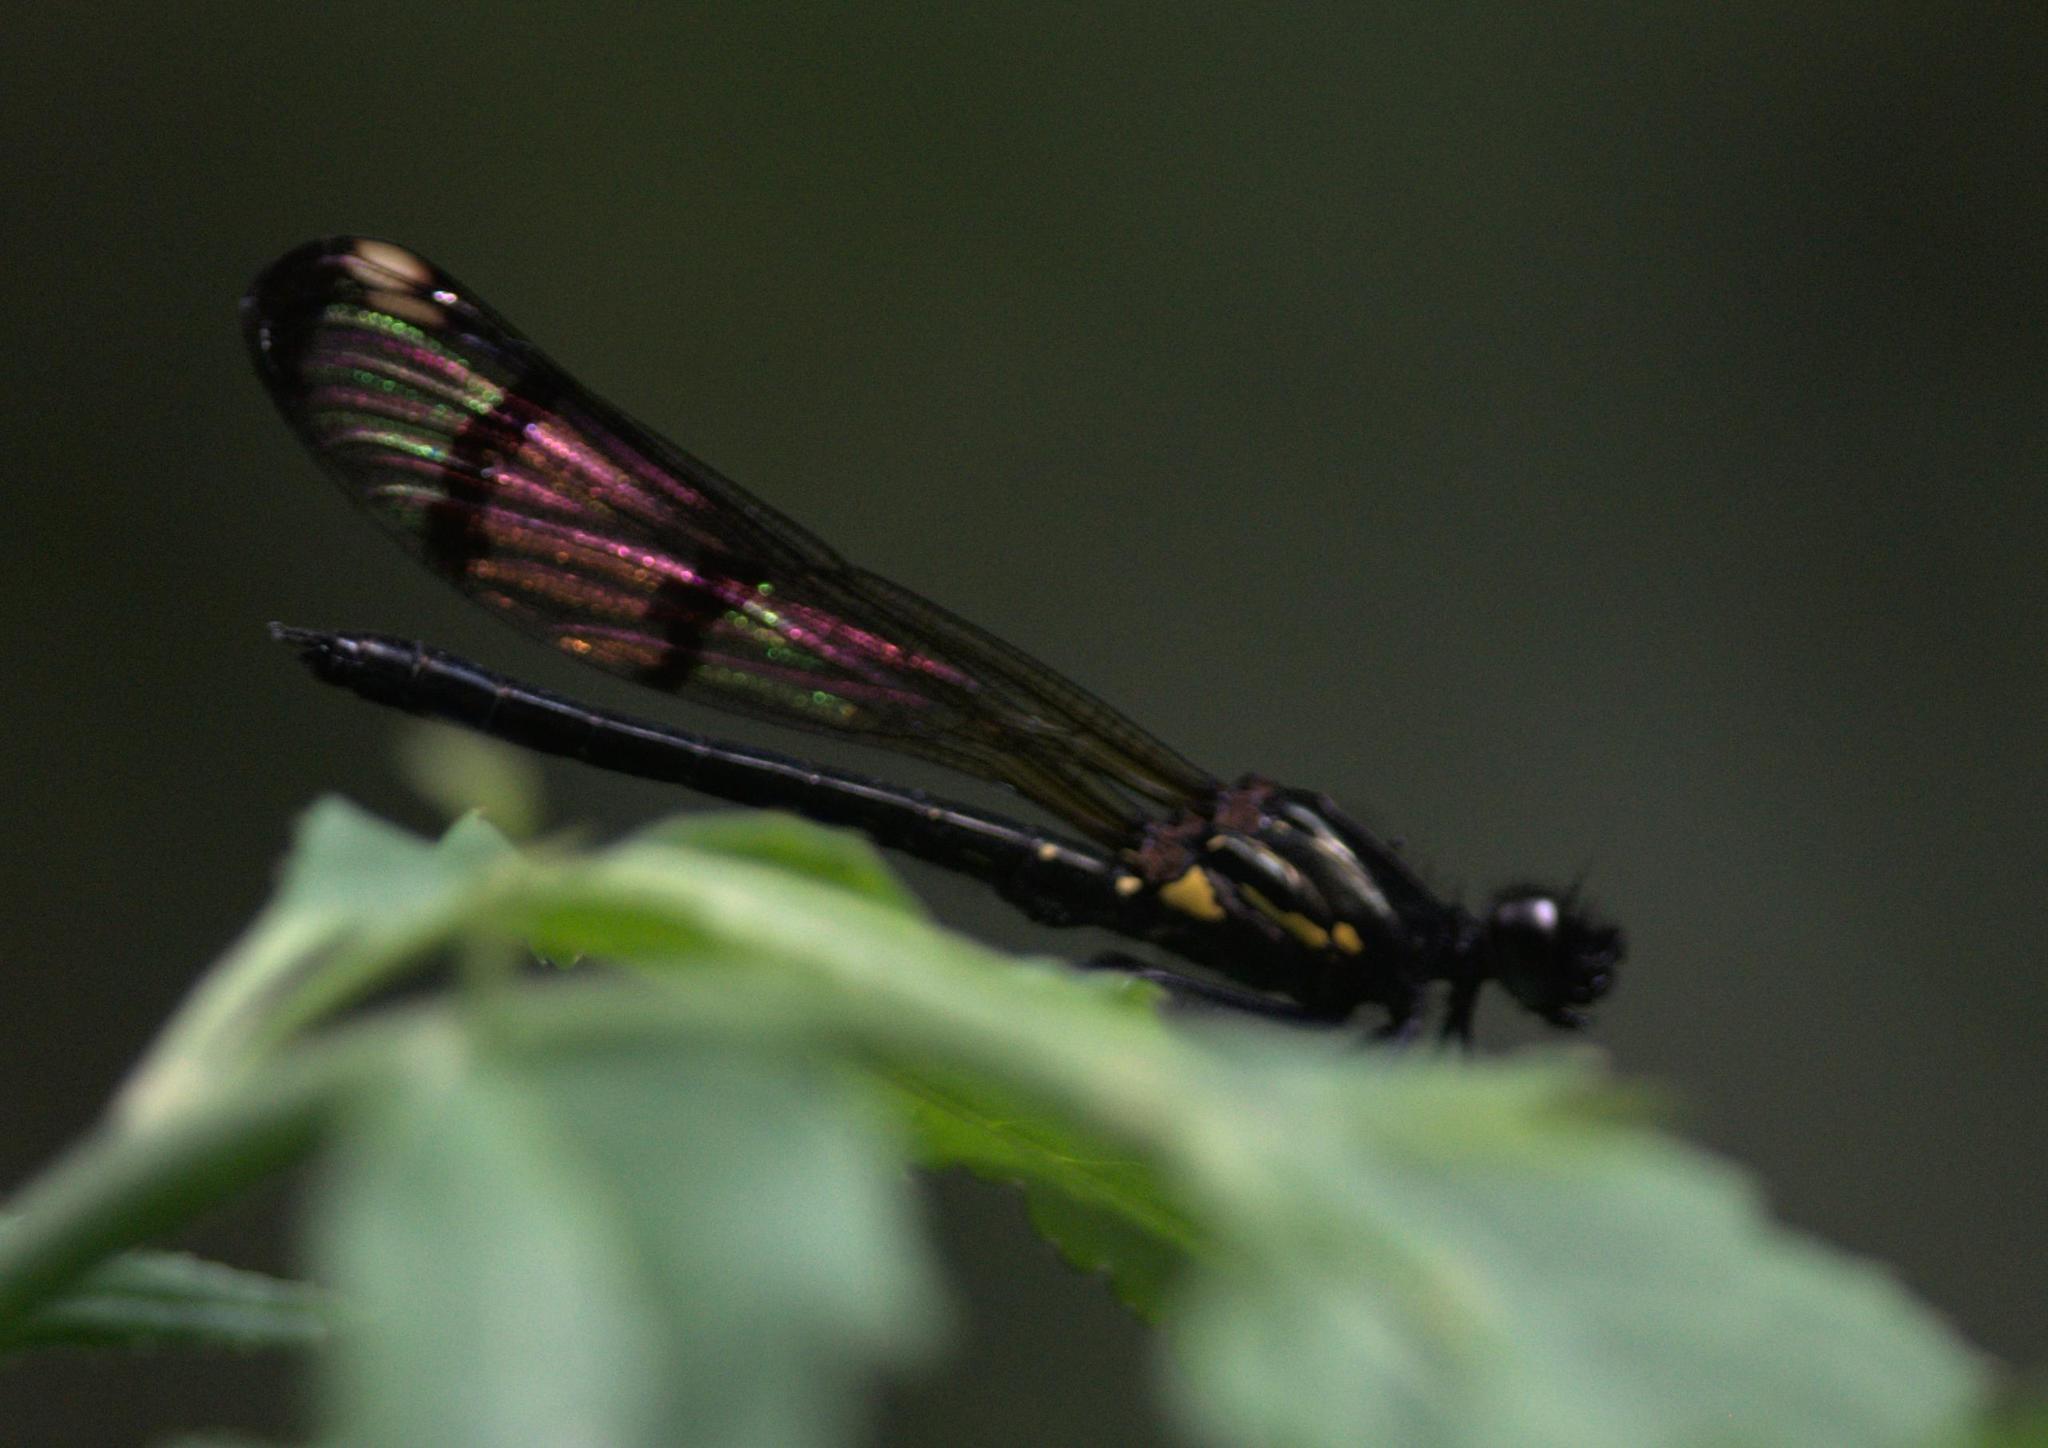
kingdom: Animalia
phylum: Arthropoda
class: Insecta
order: Odonata
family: Chlorocyphidae
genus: Aristocypha
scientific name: Aristocypha trifasciata
